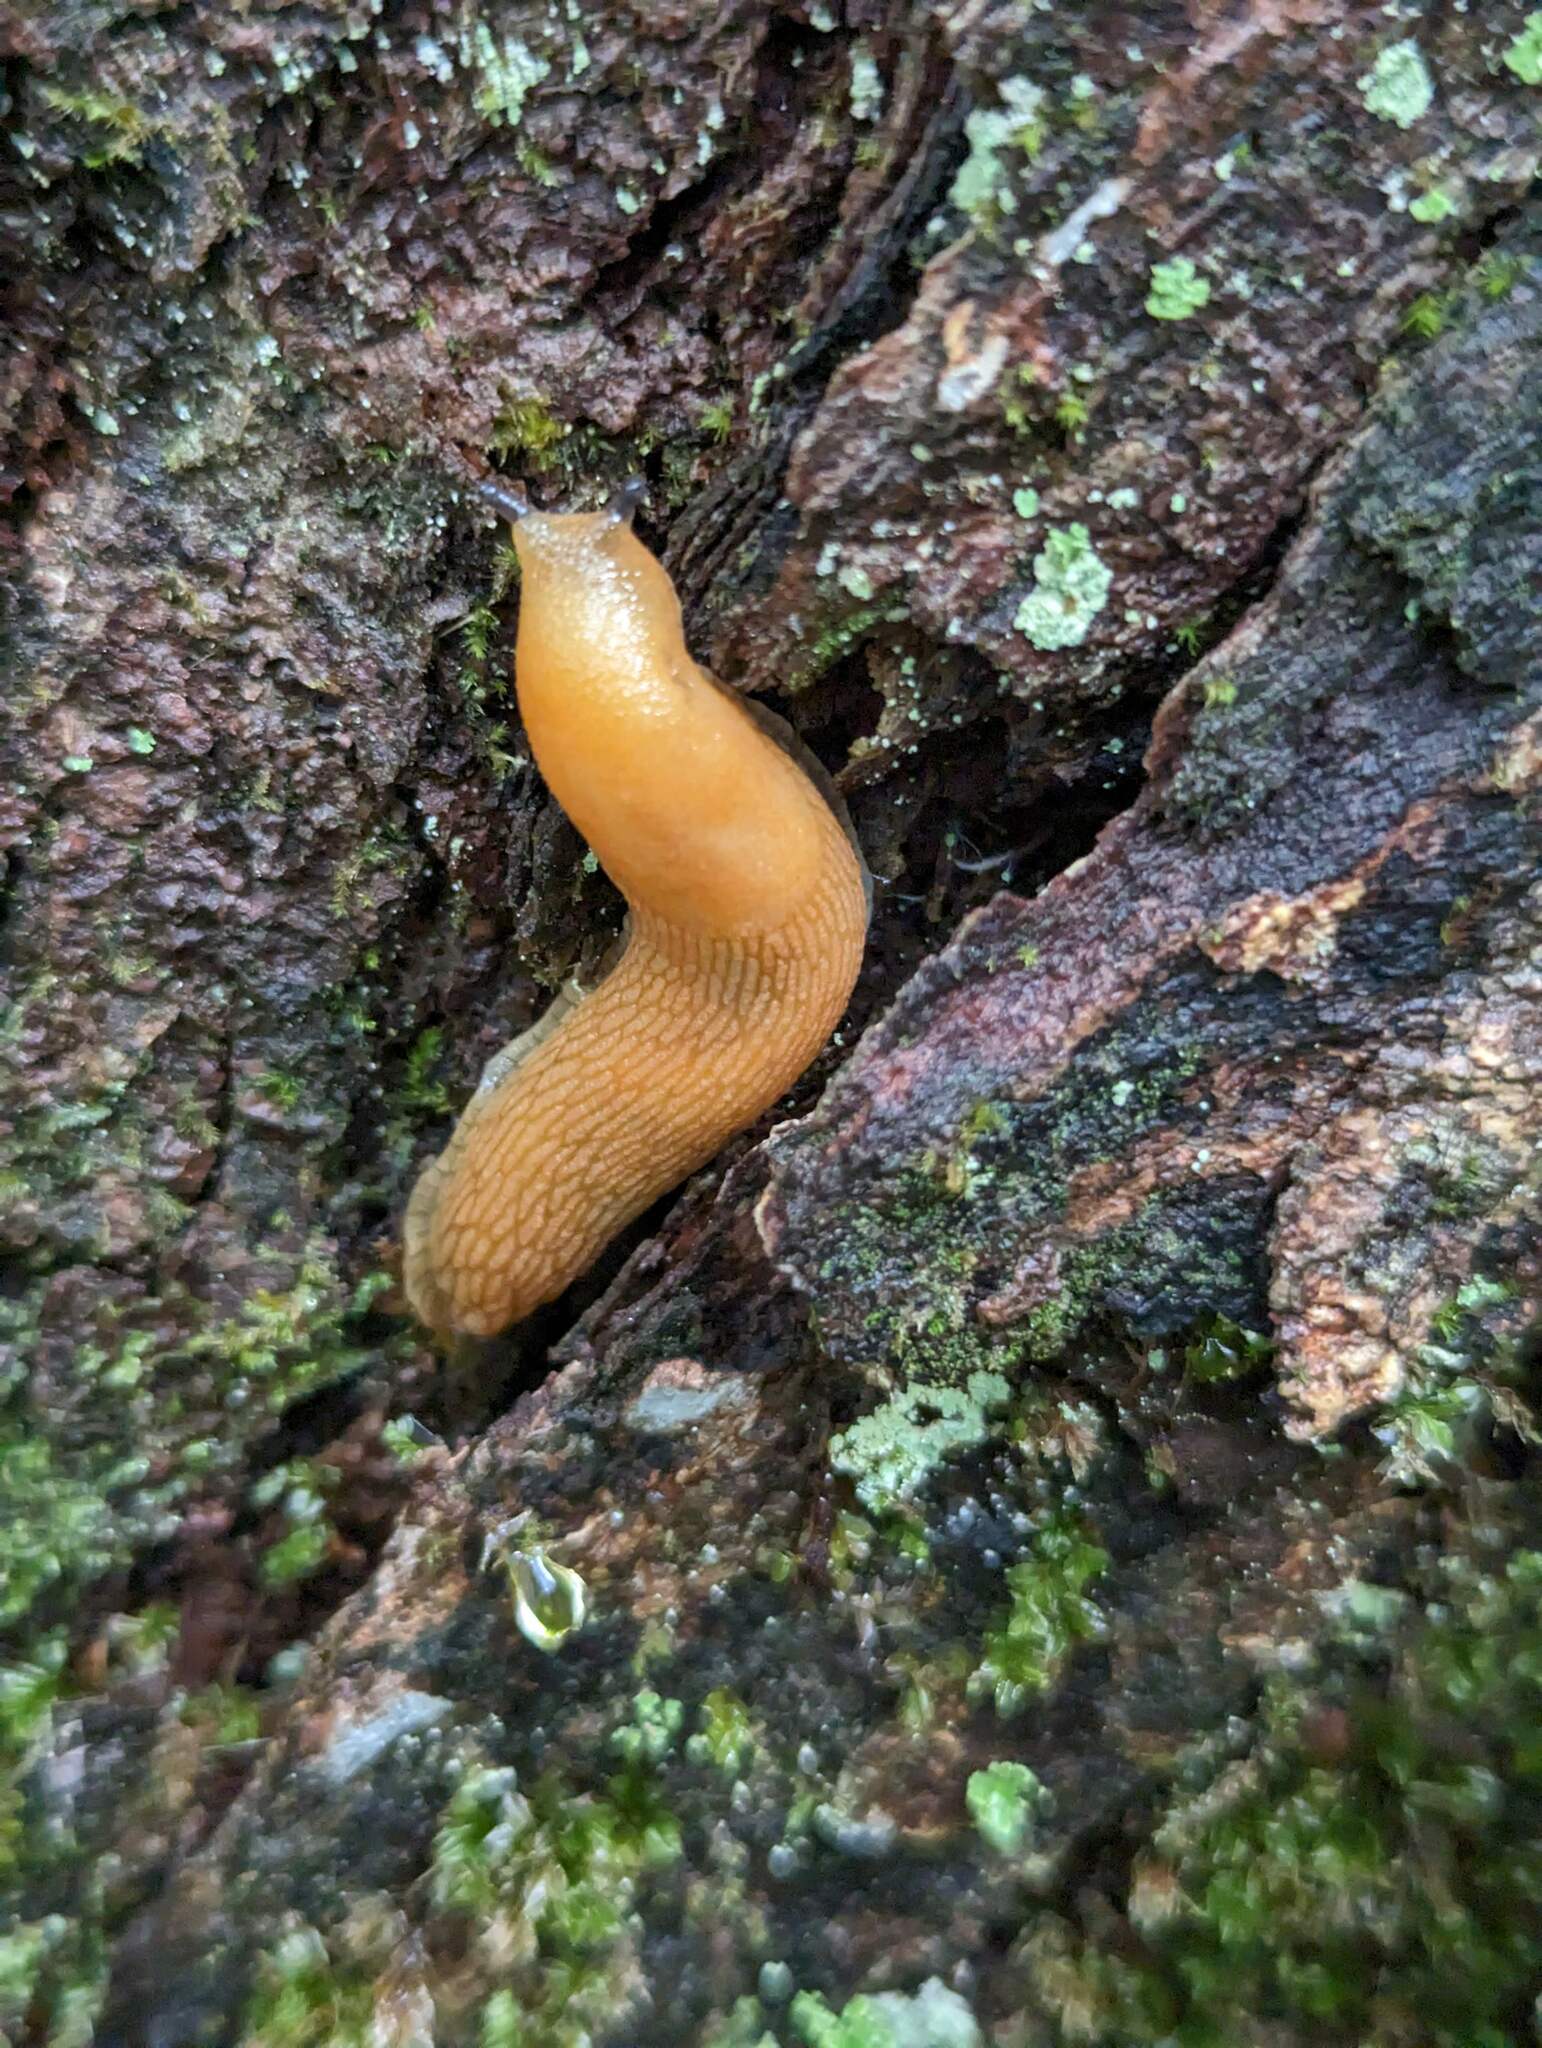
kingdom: Animalia
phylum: Mollusca
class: Gastropoda
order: Stylommatophora
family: Arionidae
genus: Arion
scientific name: Arion subfuscus
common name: Dusky arion
